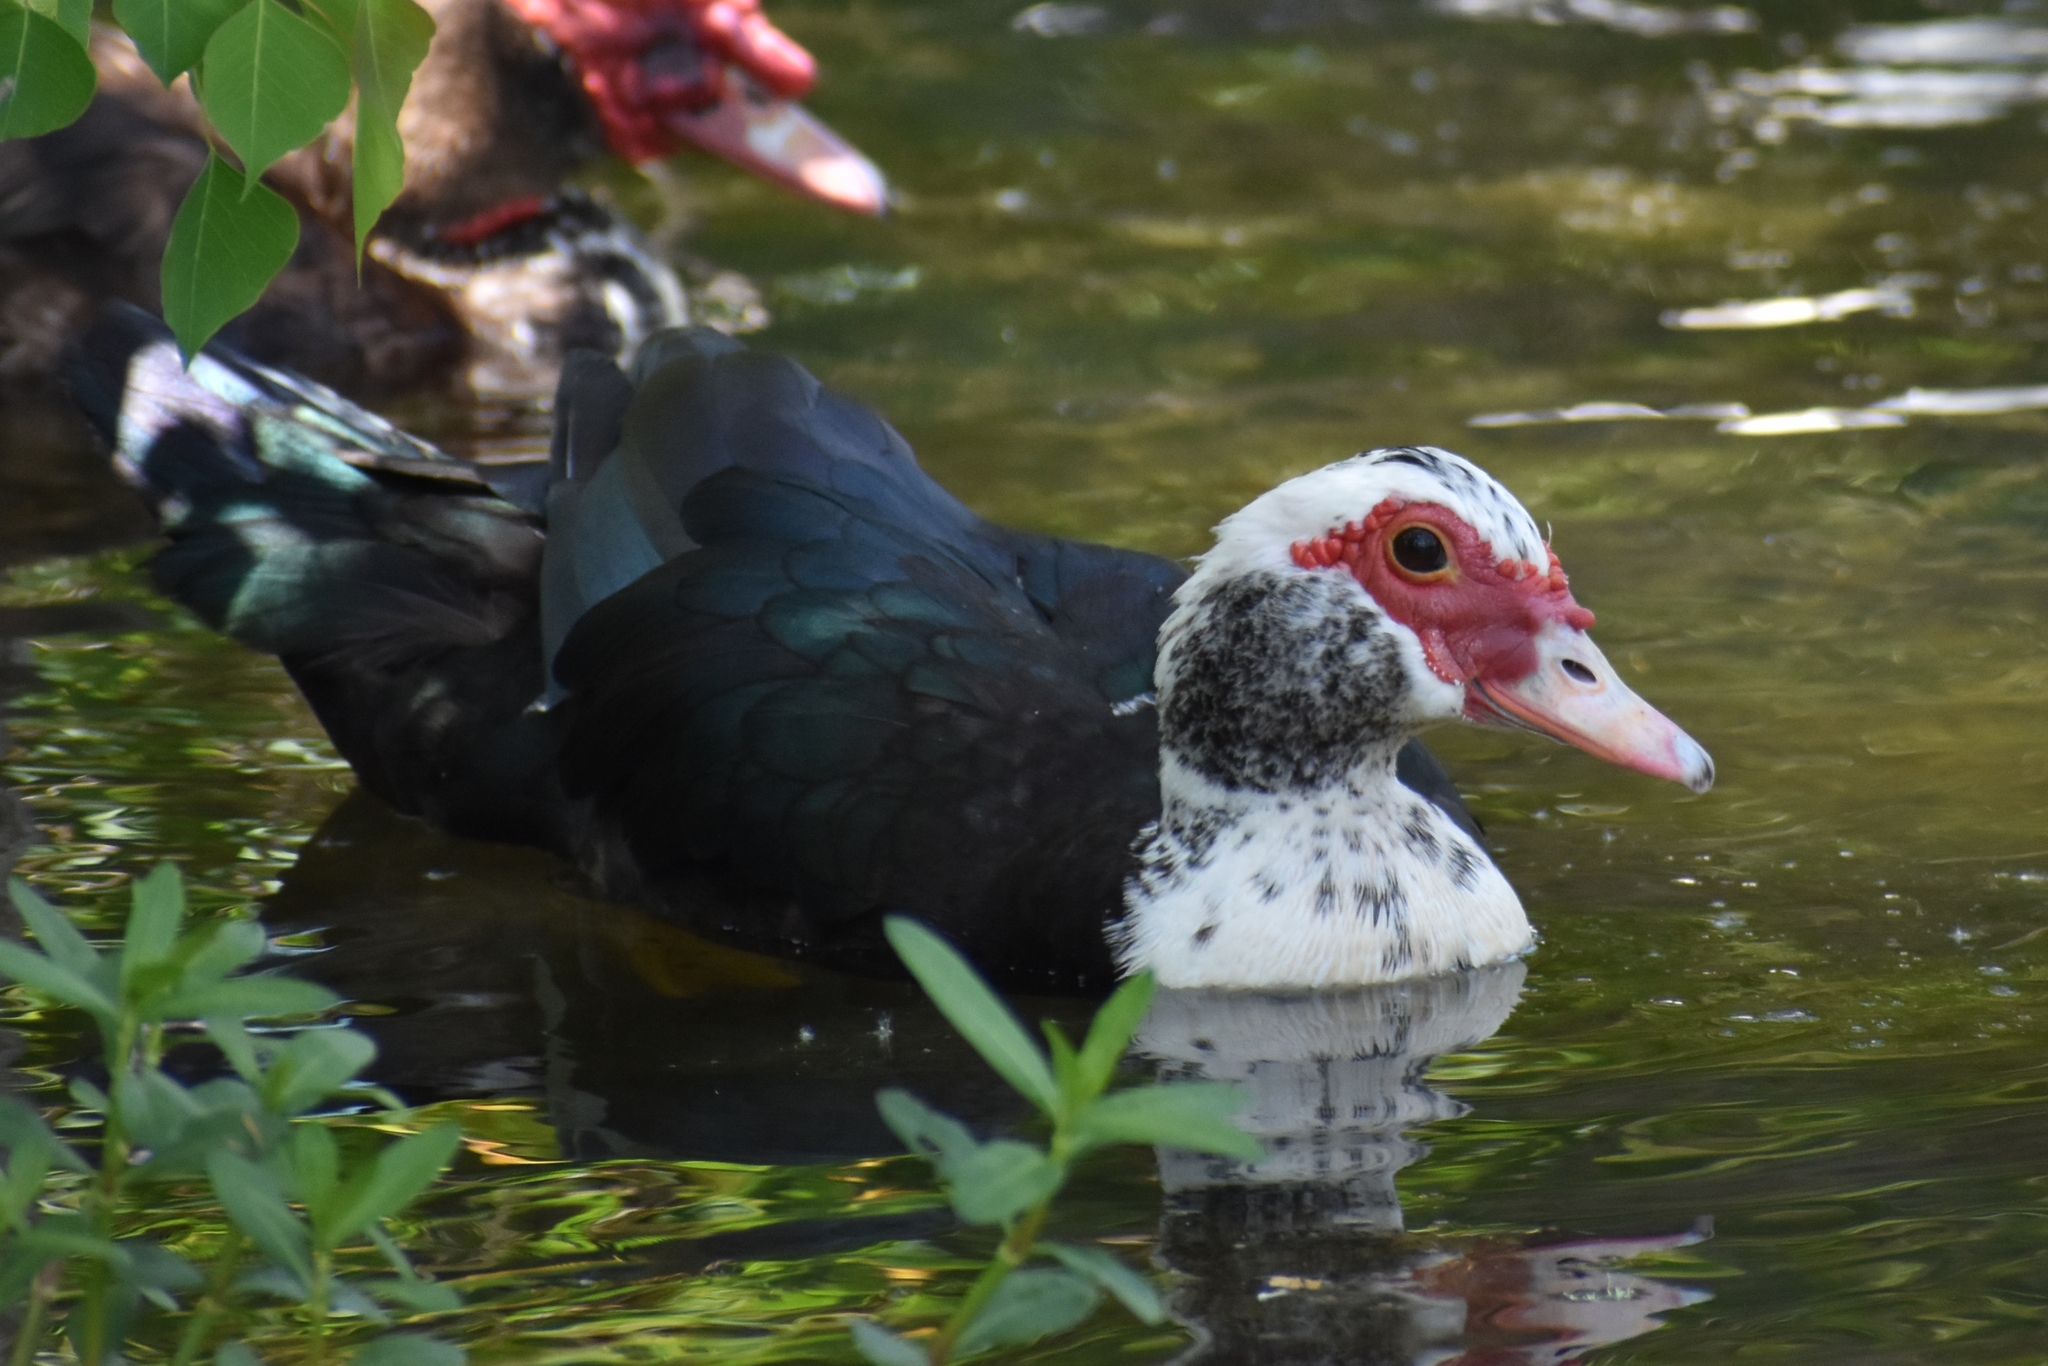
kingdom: Animalia
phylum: Chordata
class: Aves
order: Anseriformes
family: Anatidae
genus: Cairina
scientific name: Cairina moschata
